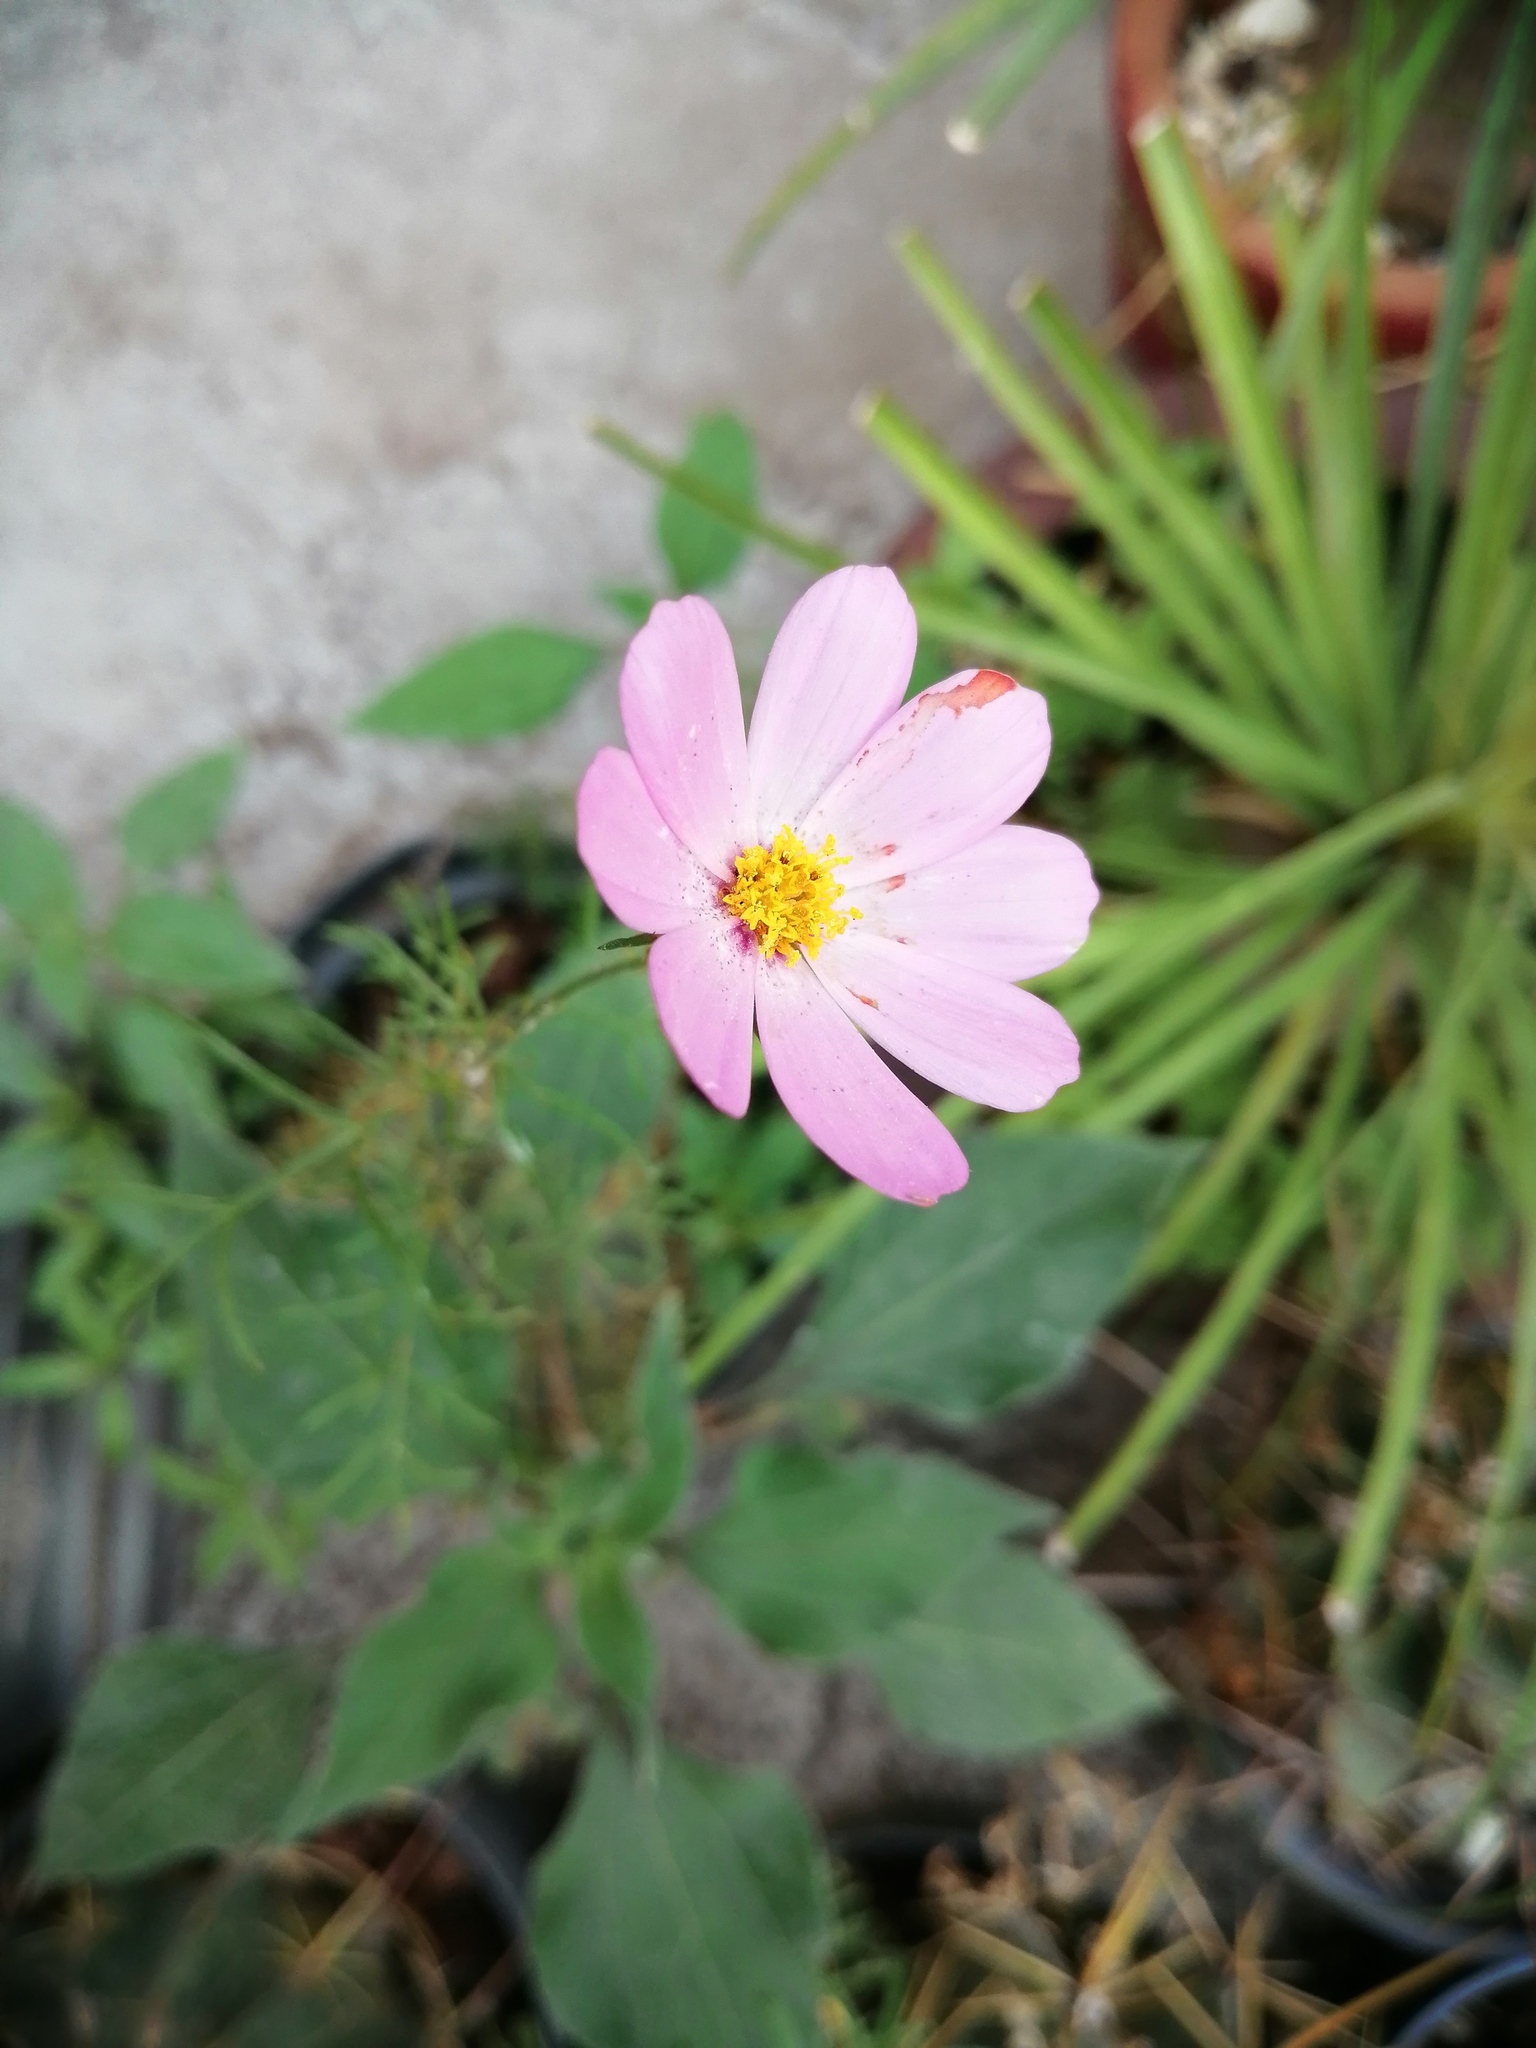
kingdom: Plantae
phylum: Tracheophyta
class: Magnoliopsida
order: Asterales
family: Asteraceae
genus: Cosmos
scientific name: Cosmos bipinnatus
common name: Garden cosmos
